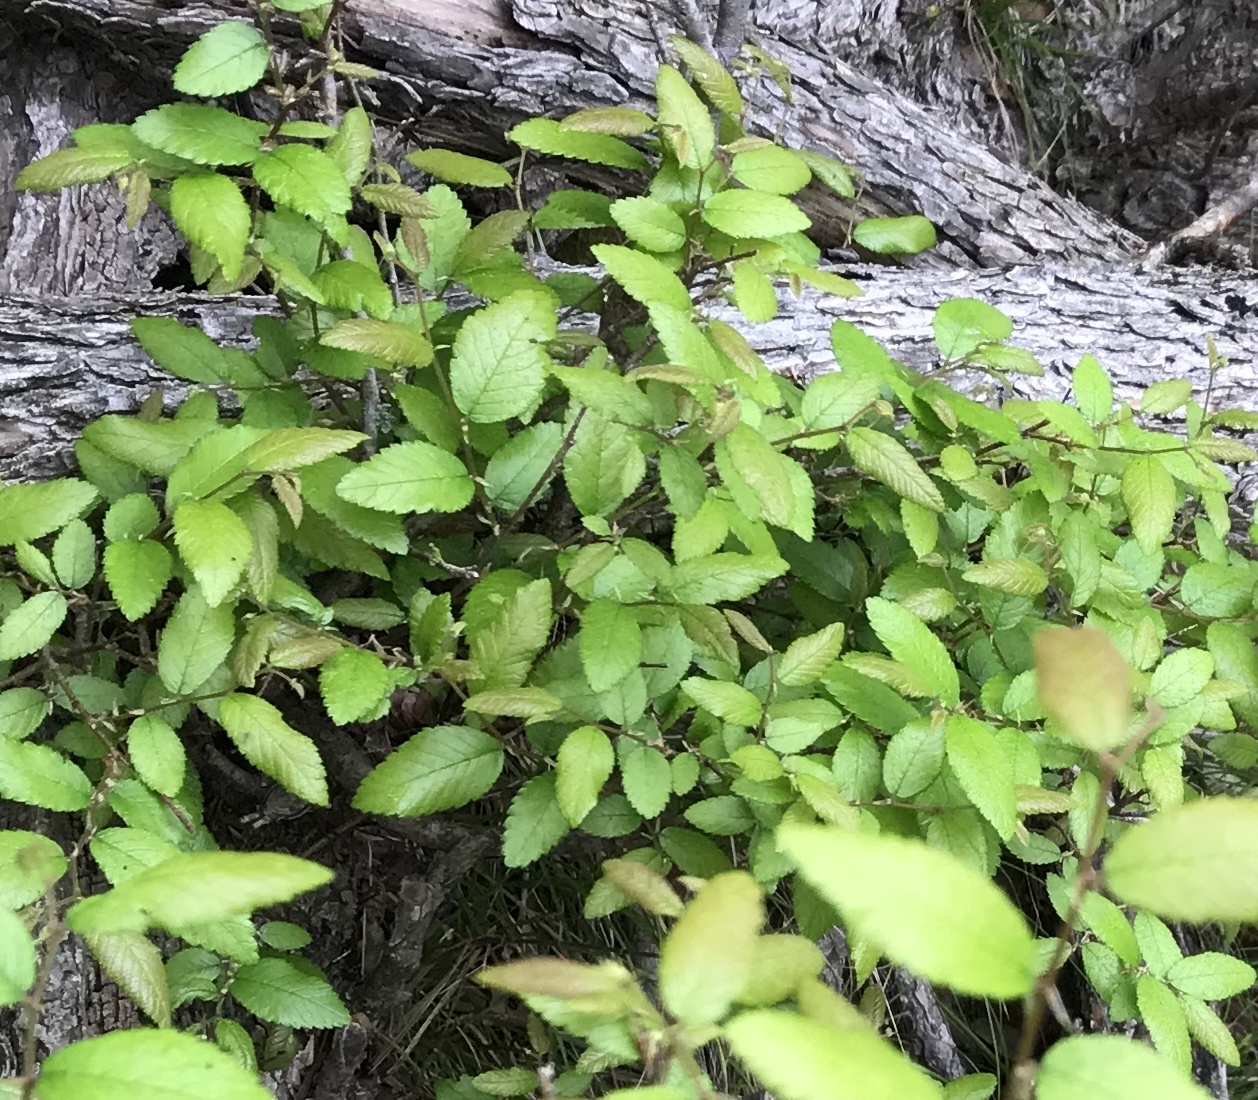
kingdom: Plantae
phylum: Tracheophyta
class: Magnoliopsida
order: Rosales
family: Ulmaceae
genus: Ulmus
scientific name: Ulmus crassifolia
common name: Basket elm
